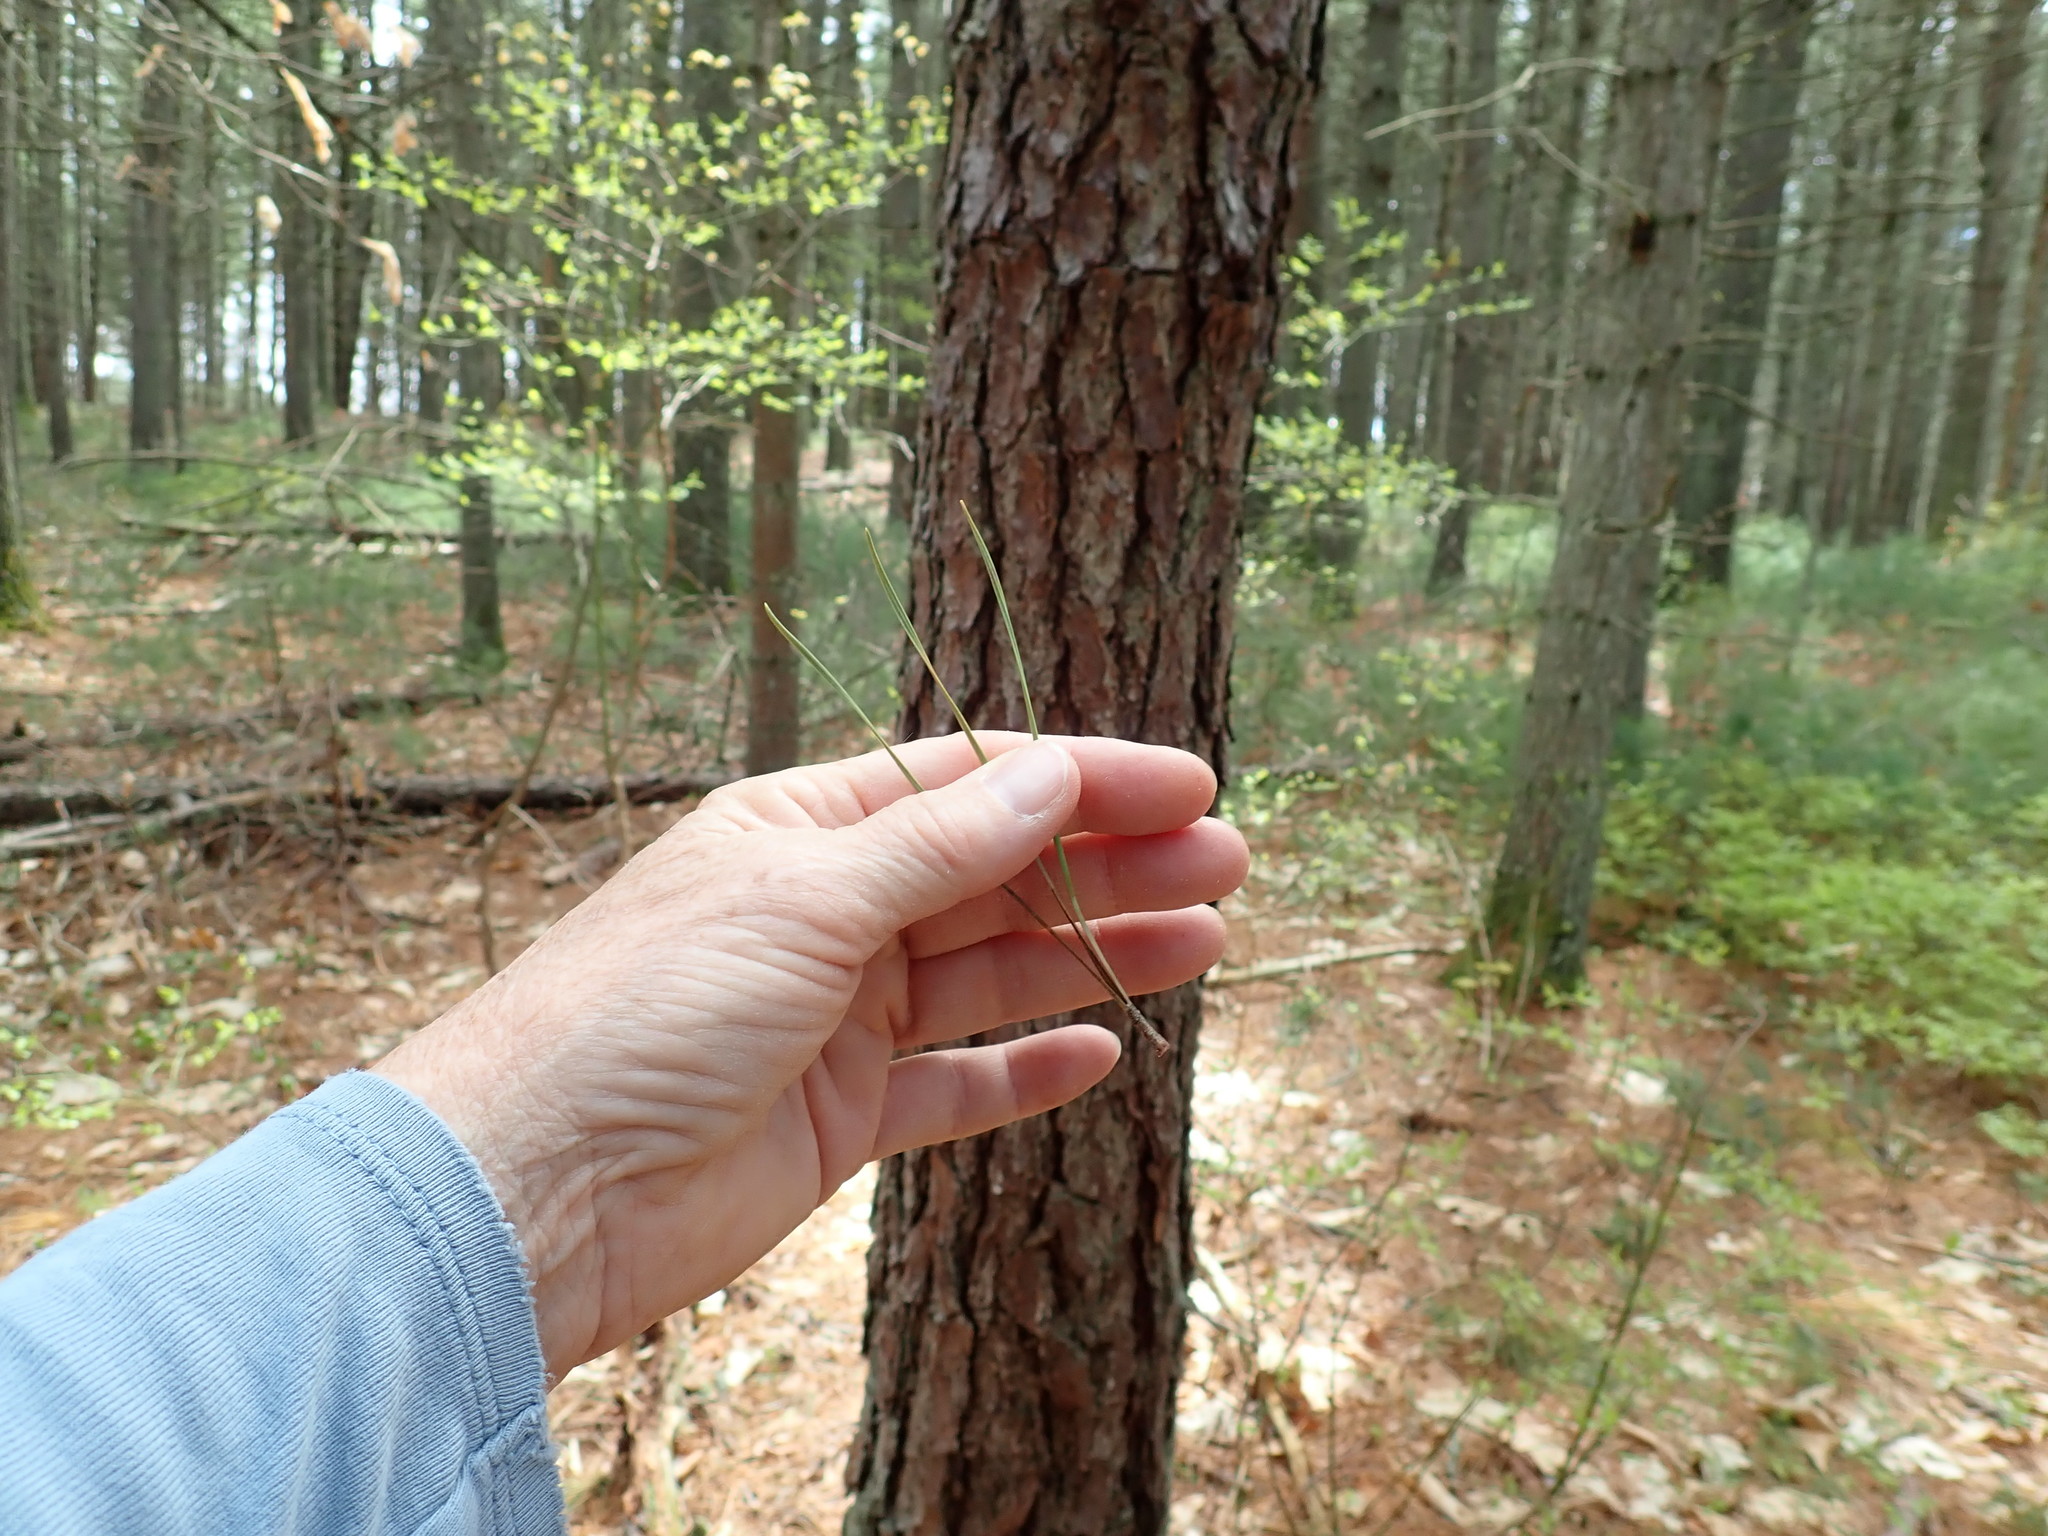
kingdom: Plantae
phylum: Tracheophyta
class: Pinopsida
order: Pinales
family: Pinaceae
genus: Pinus
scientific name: Pinus rigida
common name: Pitch pine
